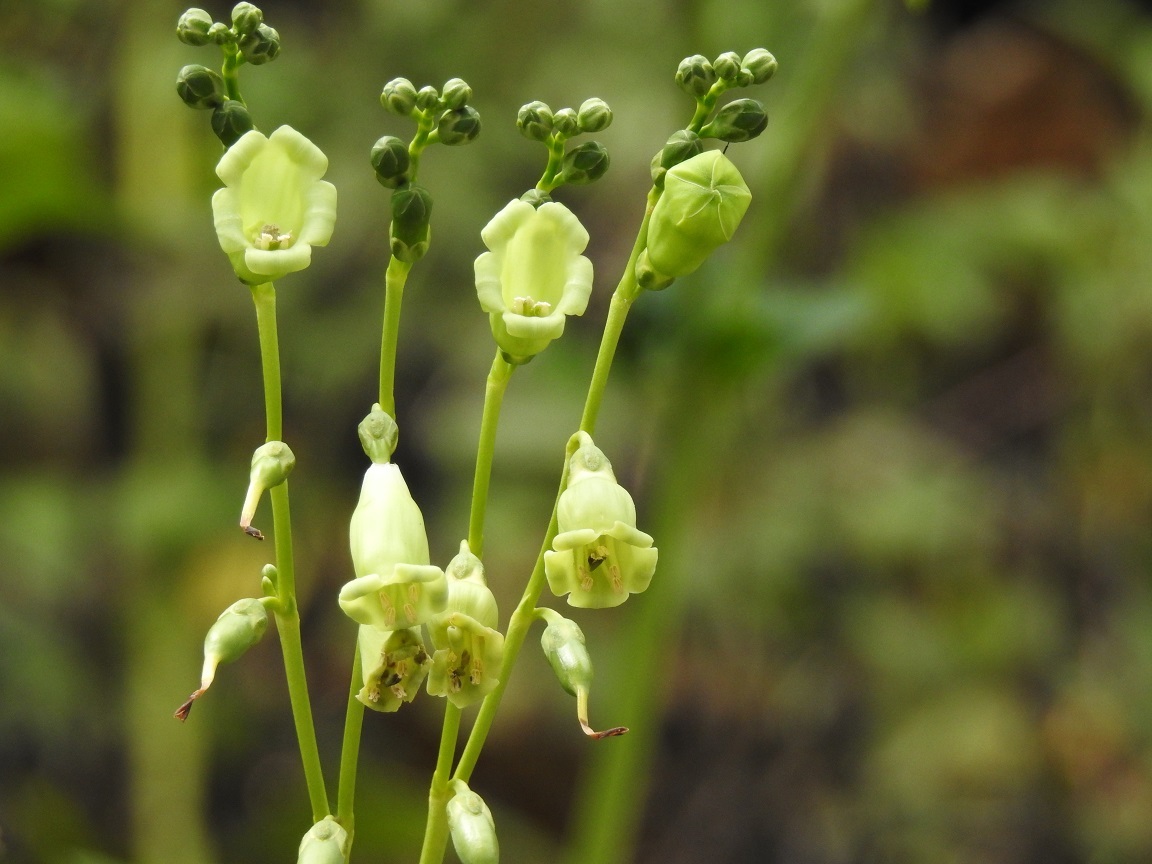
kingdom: Plantae
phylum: Tracheophyta
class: Magnoliopsida
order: Gentianales
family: Gentianaceae
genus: Chelonanthus
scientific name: Chelonanthus alatus
